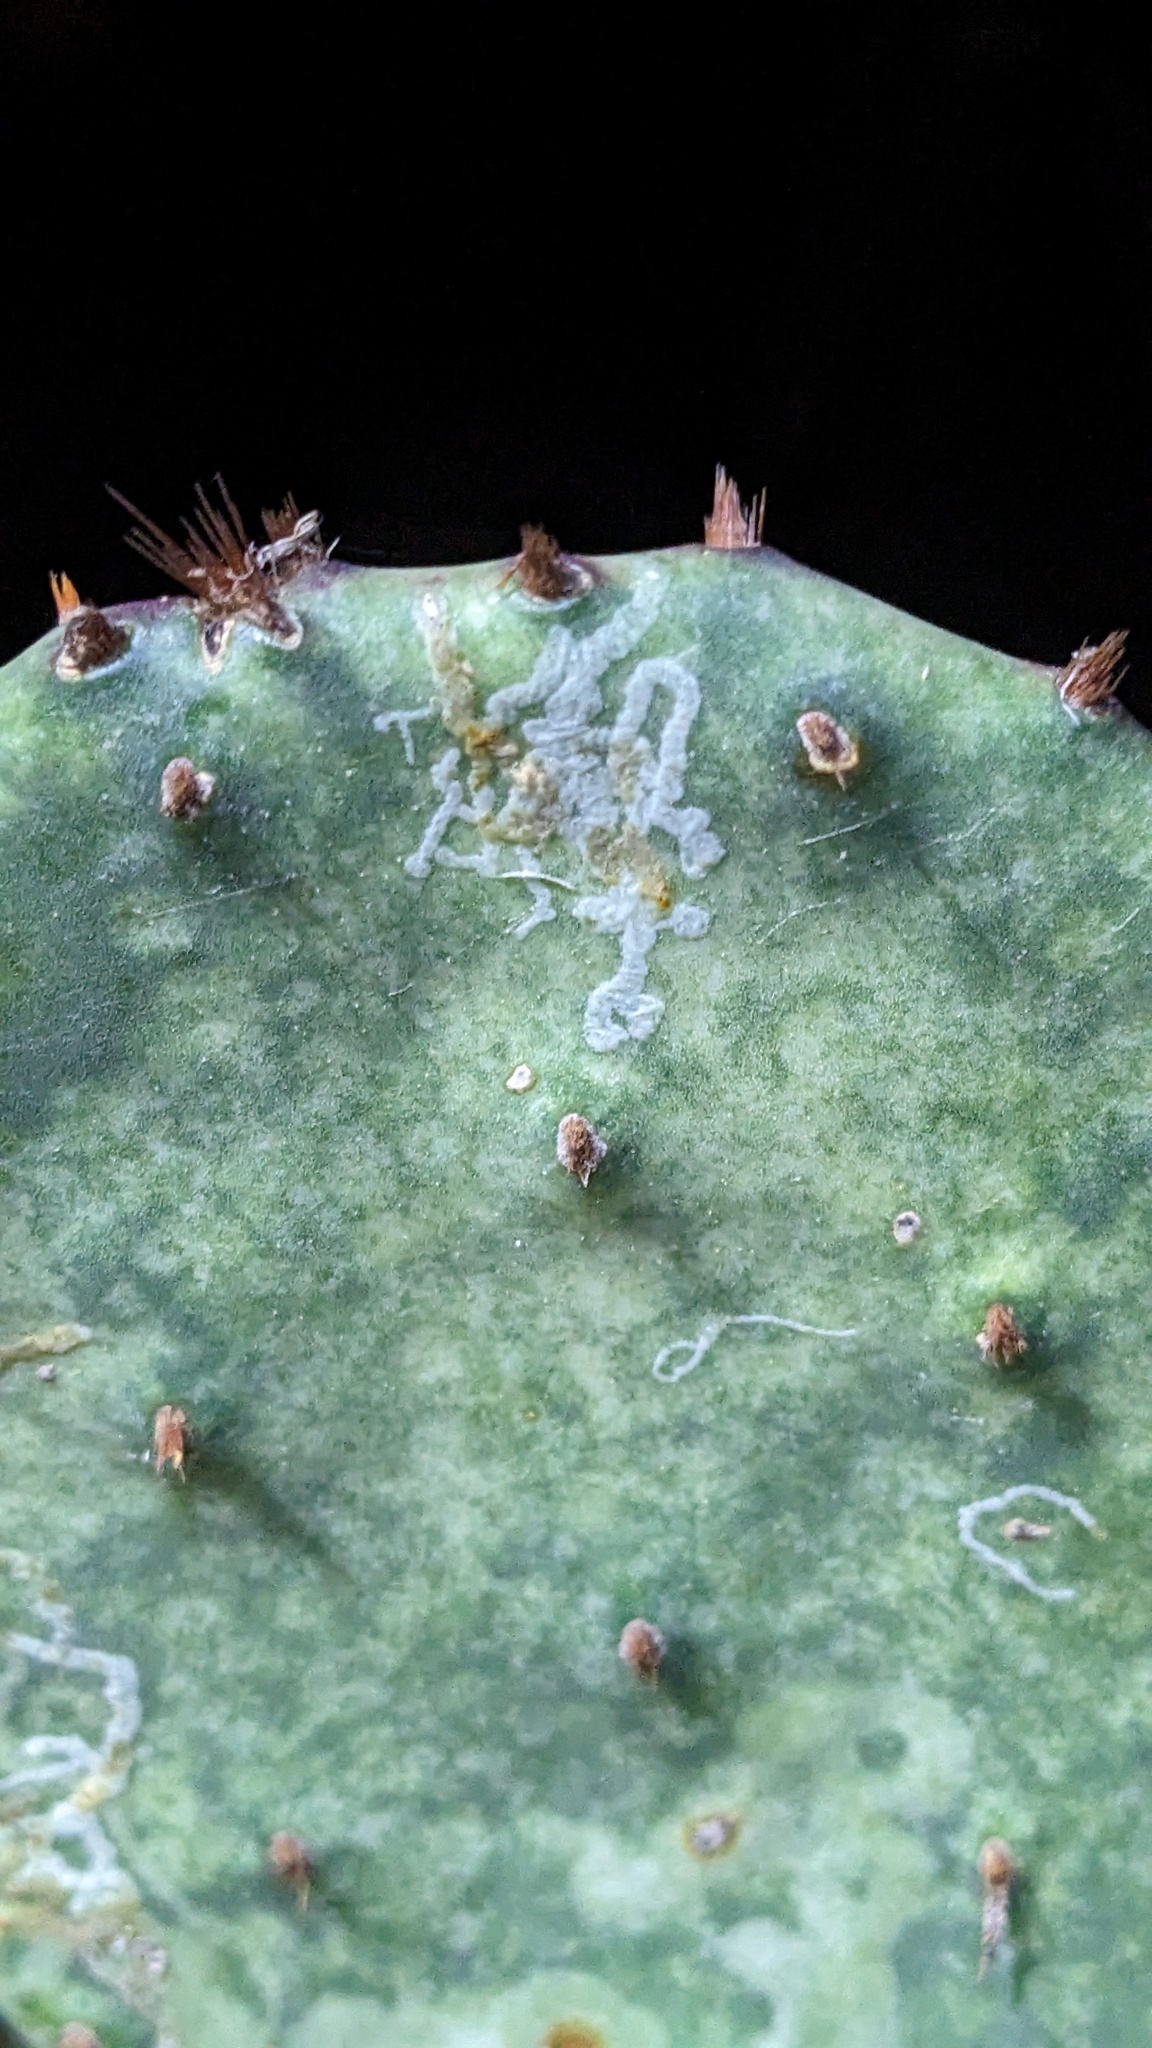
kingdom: Animalia
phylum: Arthropoda
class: Insecta
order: Lepidoptera
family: Gracillariidae
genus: Marmara
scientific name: Marmara opuntiella
